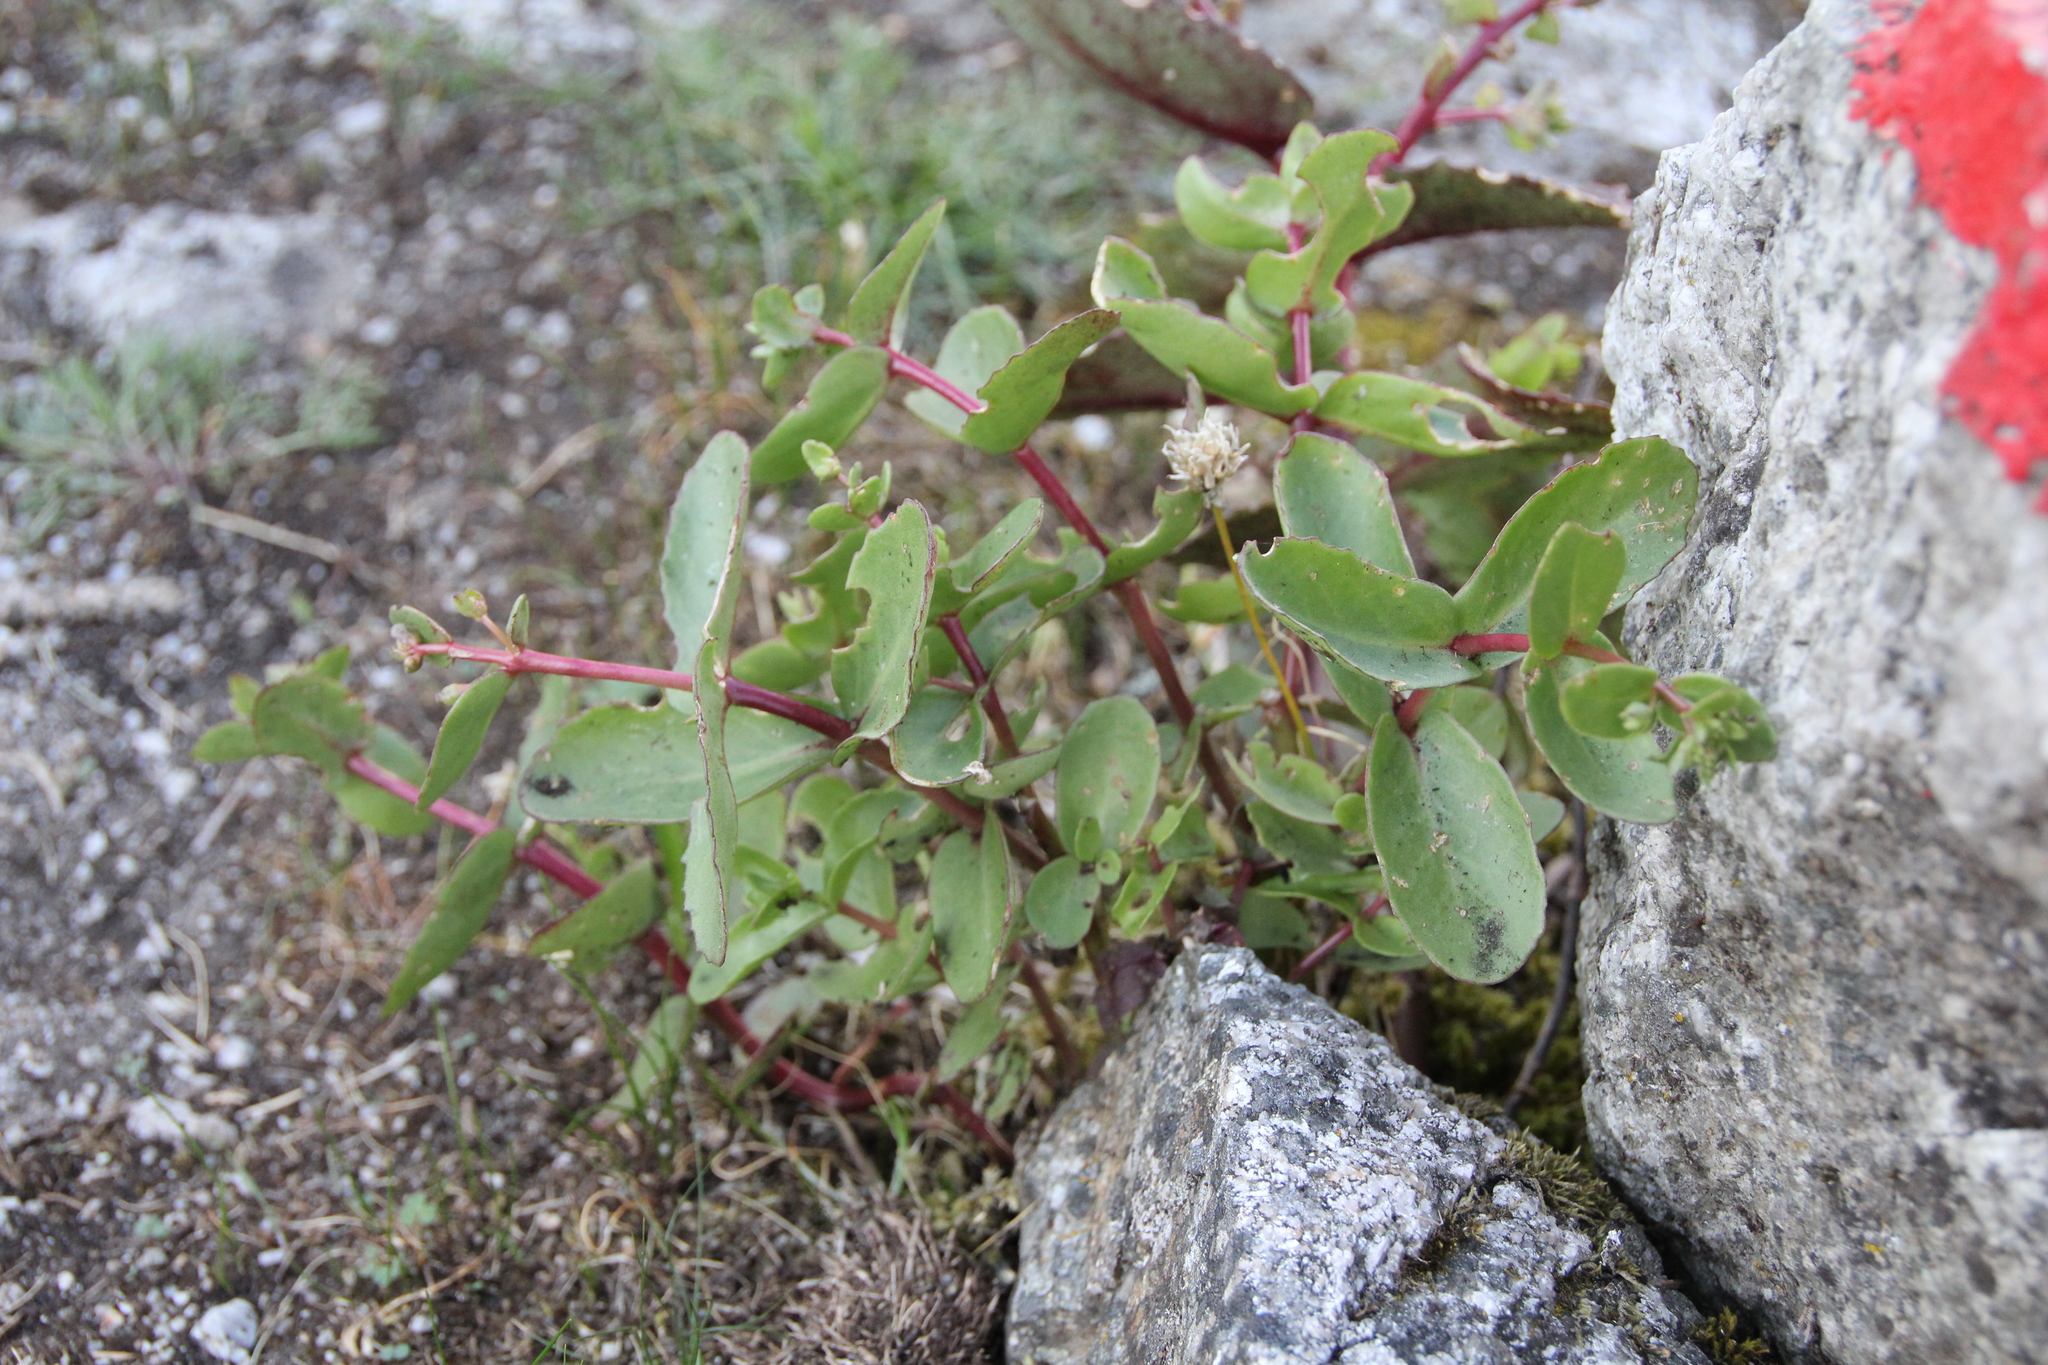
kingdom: Plantae
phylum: Tracheophyta
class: Magnoliopsida
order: Saxifragales
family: Crassulaceae
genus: Hylotelephium
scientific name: Hylotelephium maximum
